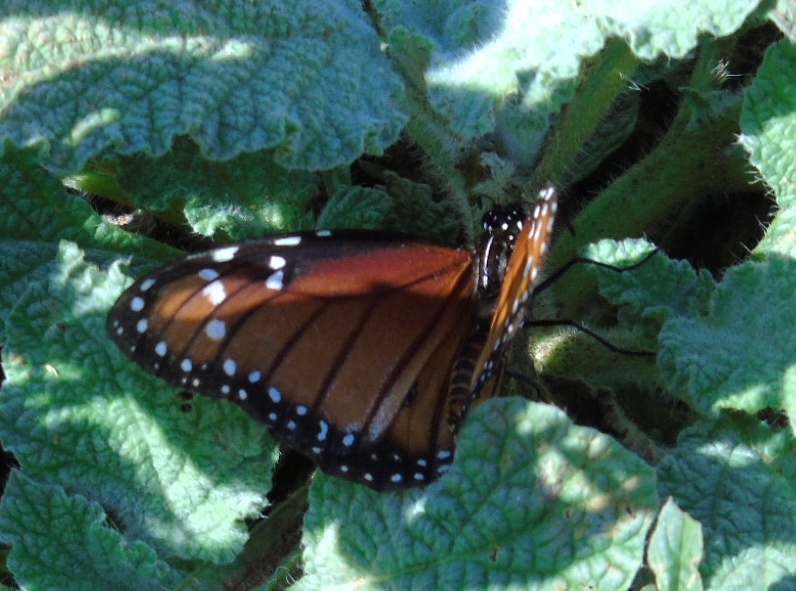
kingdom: Animalia
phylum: Arthropoda
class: Insecta
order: Lepidoptera
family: Nymphalidae
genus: Danaus
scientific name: Danaus eresimus
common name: Soldier
